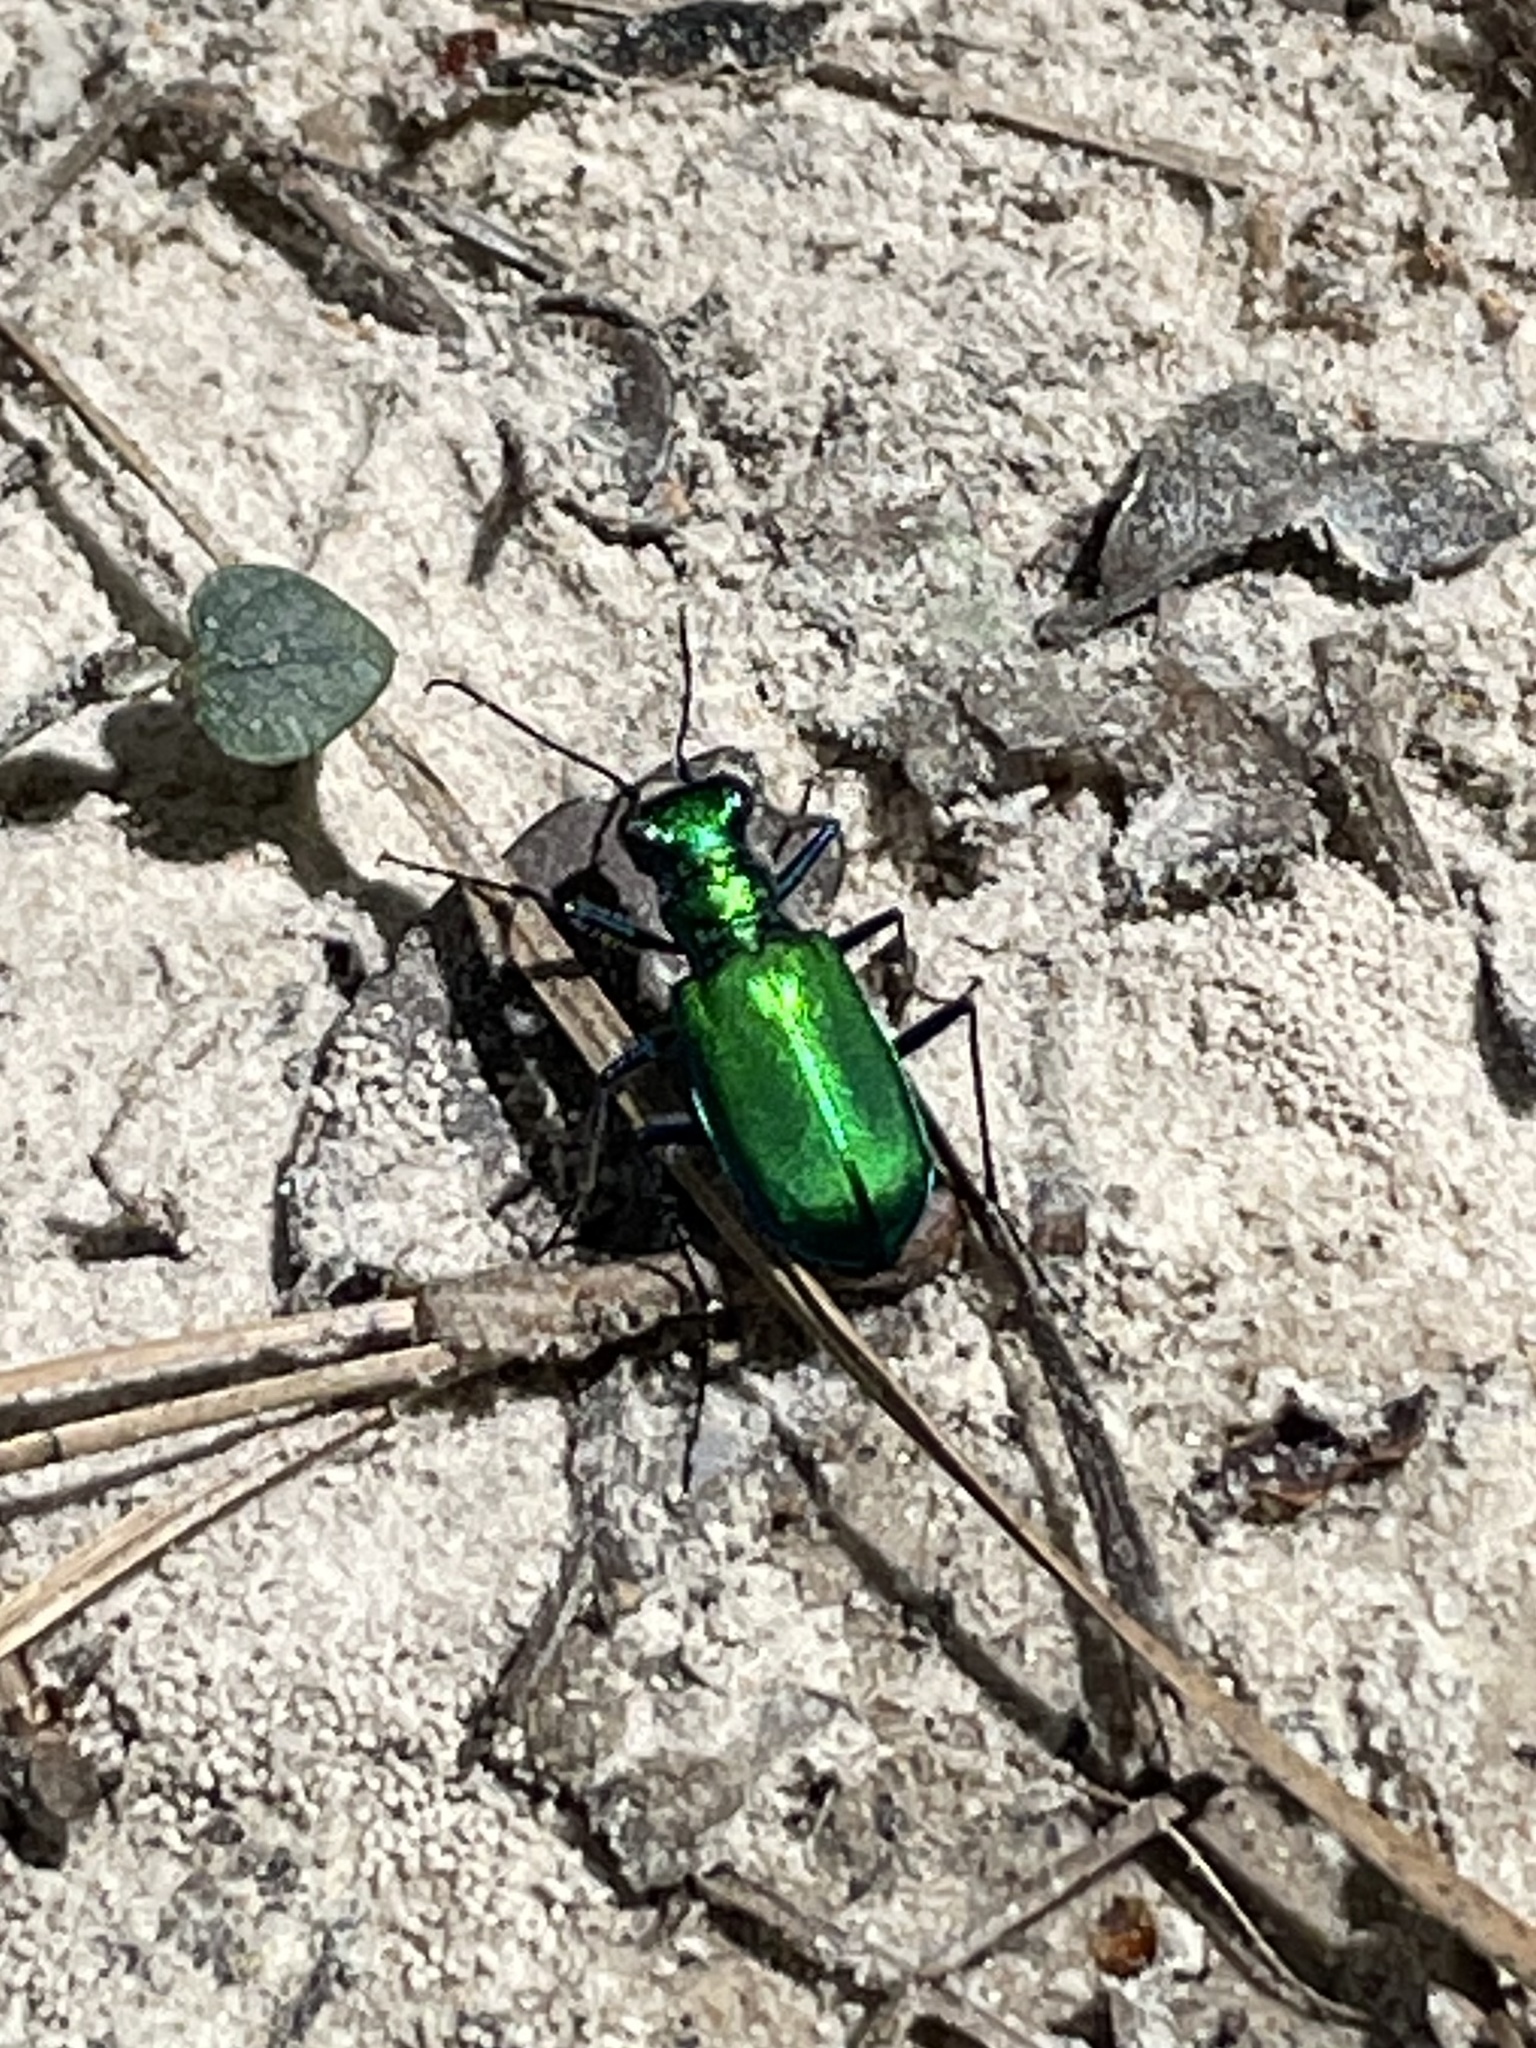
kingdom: Animalia
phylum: Arthropoda
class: Insecta
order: Coleoptera
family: Carabidae
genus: Cicindela
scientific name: Cicindela sexguttata
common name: Six-spotted tiger beetle
